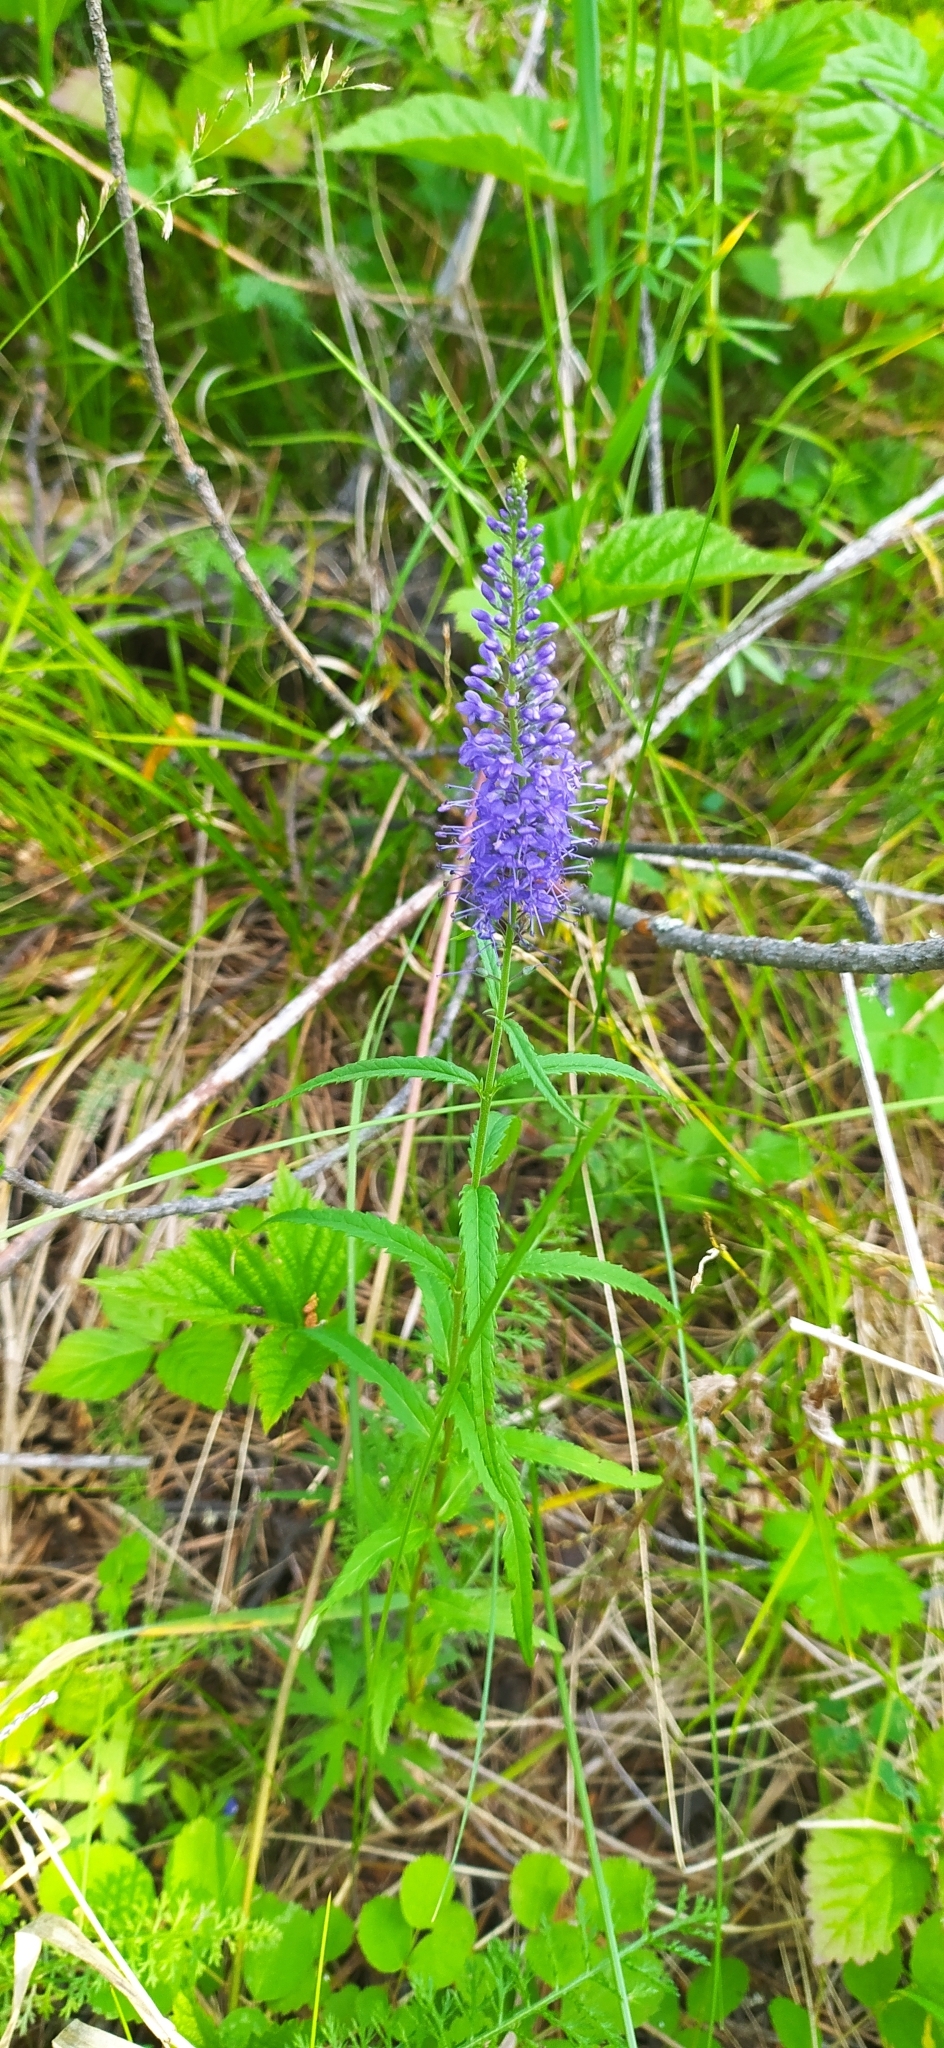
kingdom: Plantae
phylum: Tracheophyta
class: Magnoliopsida
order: Lamiales
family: Plantaginaceae
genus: Veronica
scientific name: Veronica longifolia
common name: Garden speedwell
